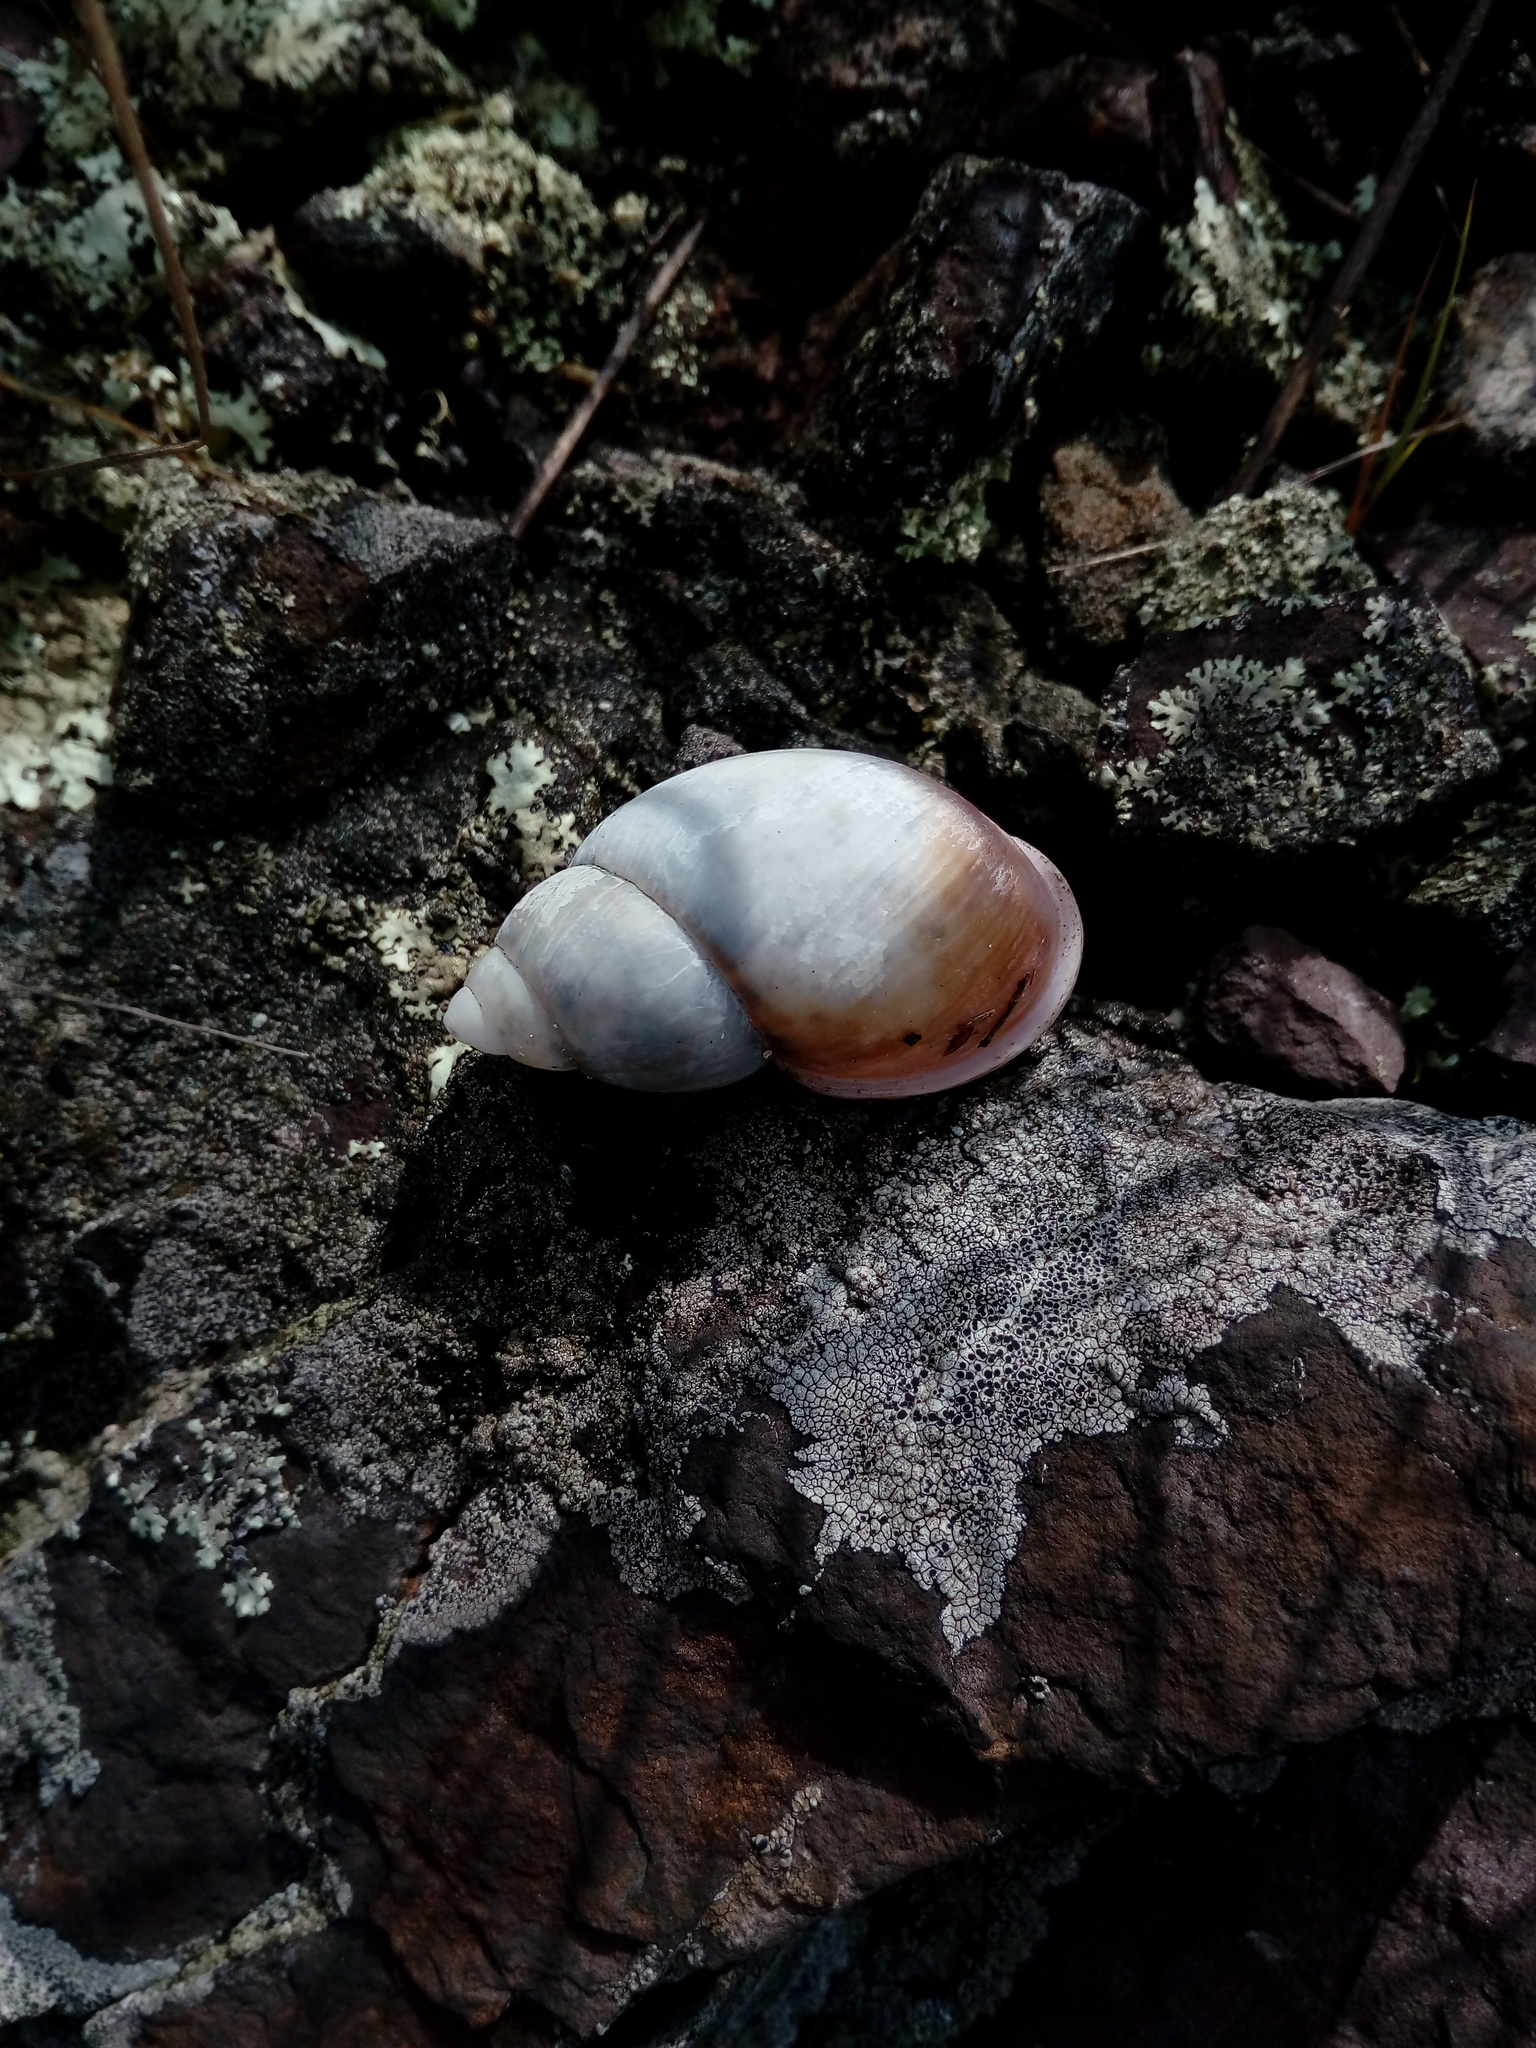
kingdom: Animalia
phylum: Mollusca
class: Gastropoda
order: Stylommatophora
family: Amphibulimidae
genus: Plekocheilus
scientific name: Plekocheilus
